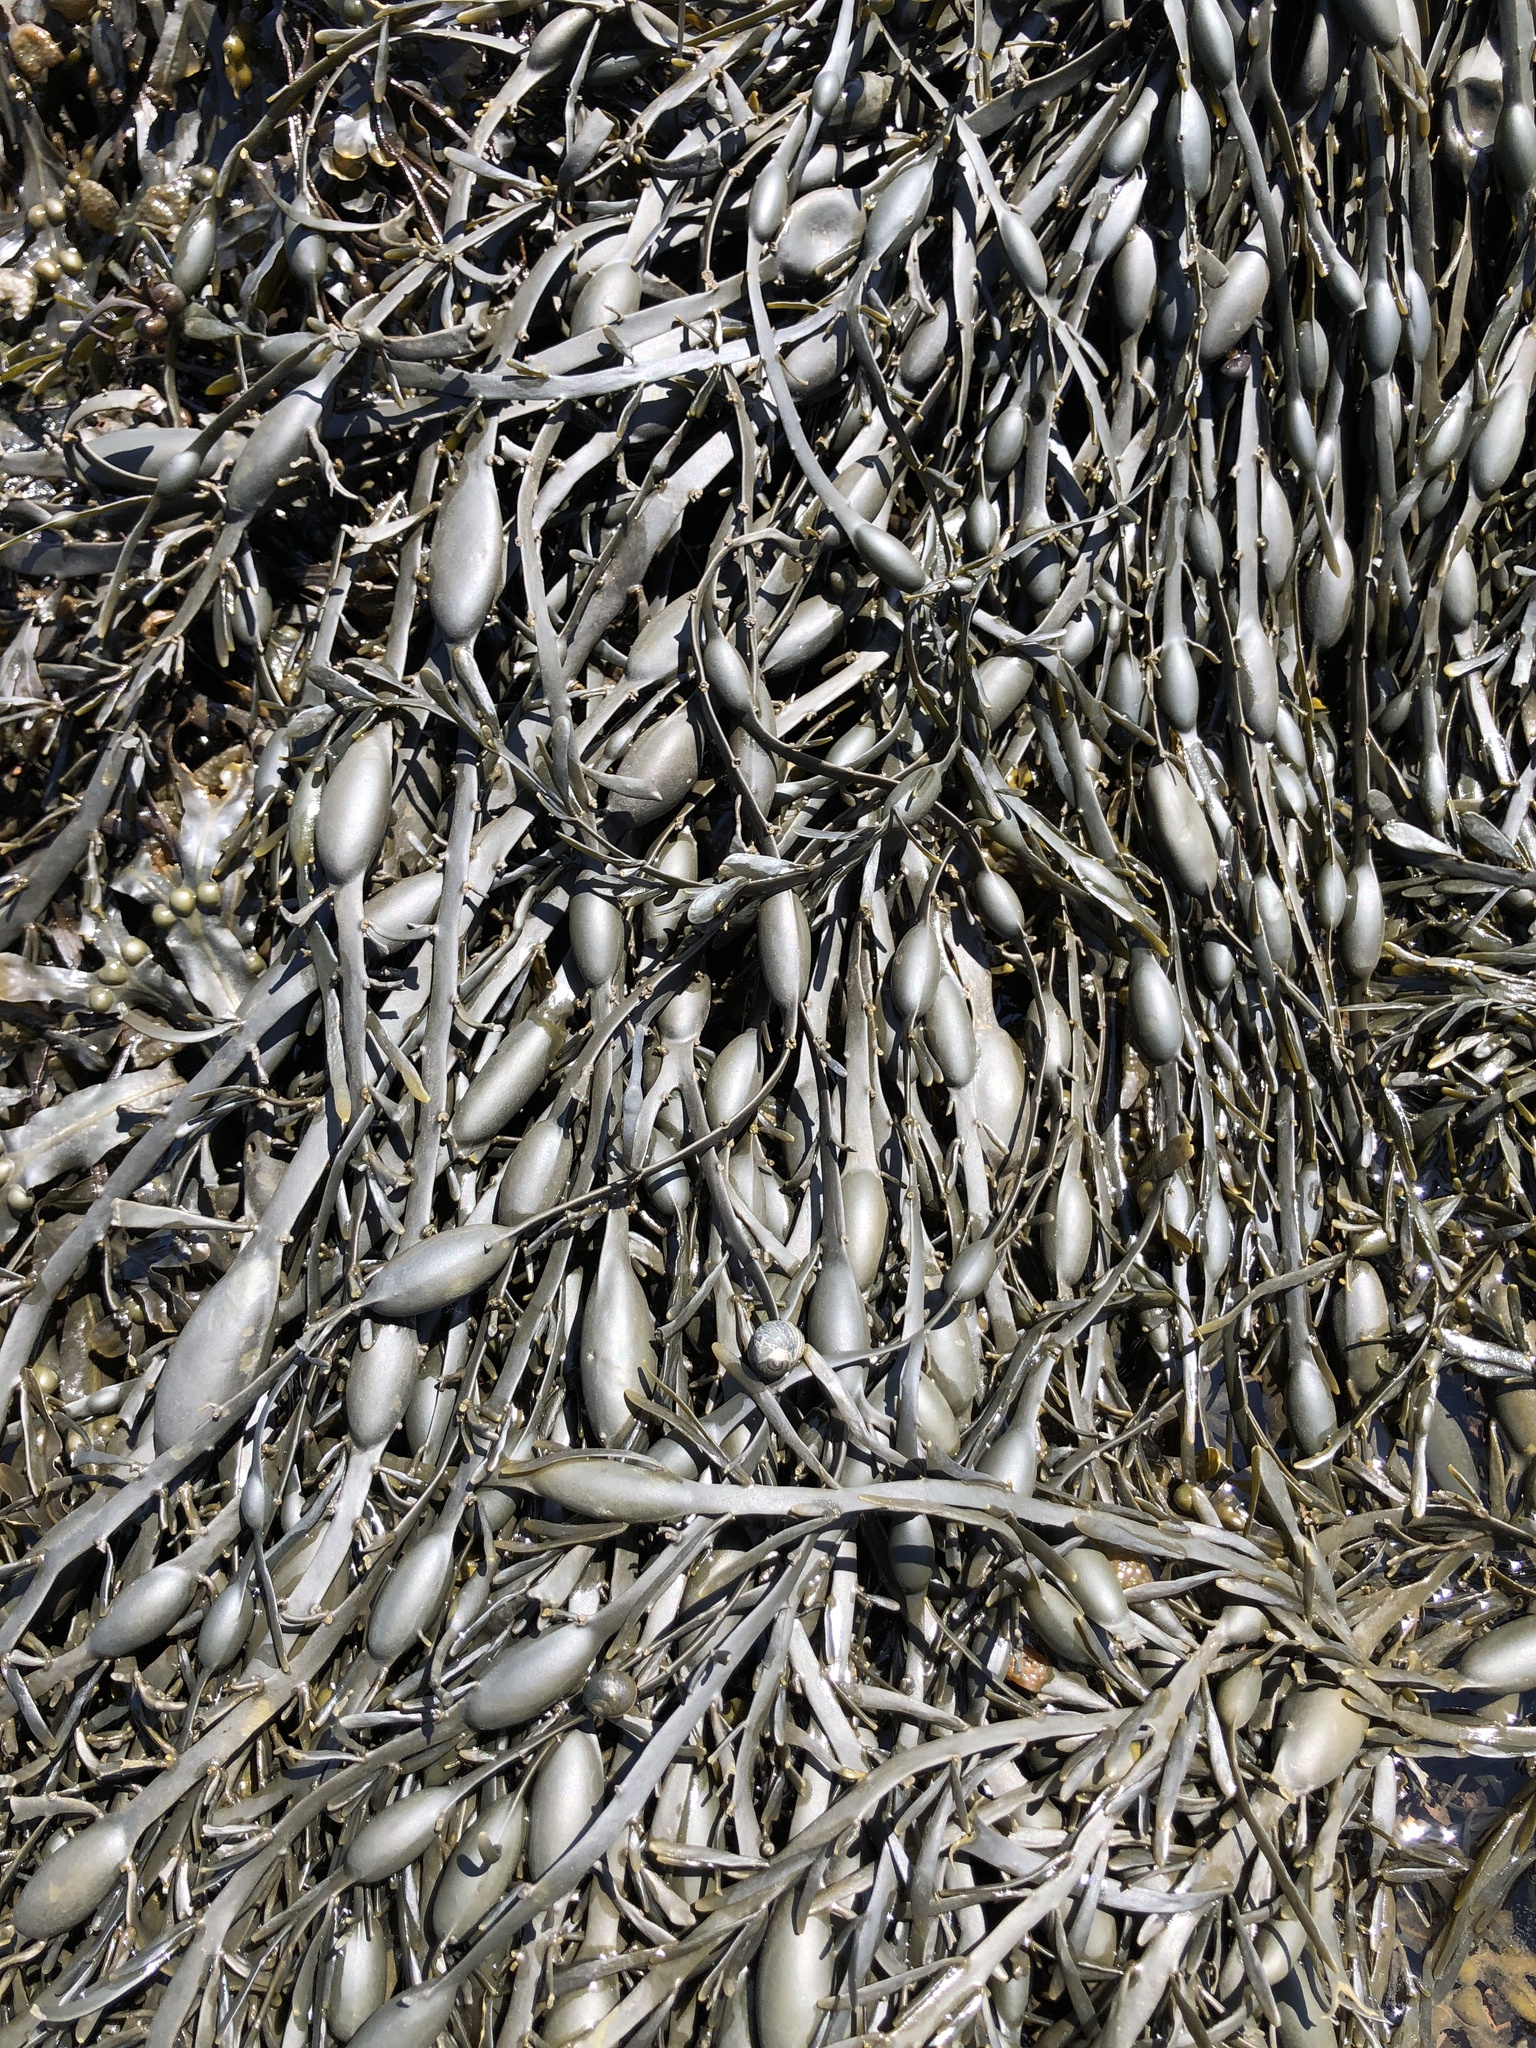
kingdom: Chromista
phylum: Ochrophyta
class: Phaeophyceae
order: Fucales
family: Fucaceae
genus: Ascophyllum
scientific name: Ascophyllum nodosum
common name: Knotted wrack
